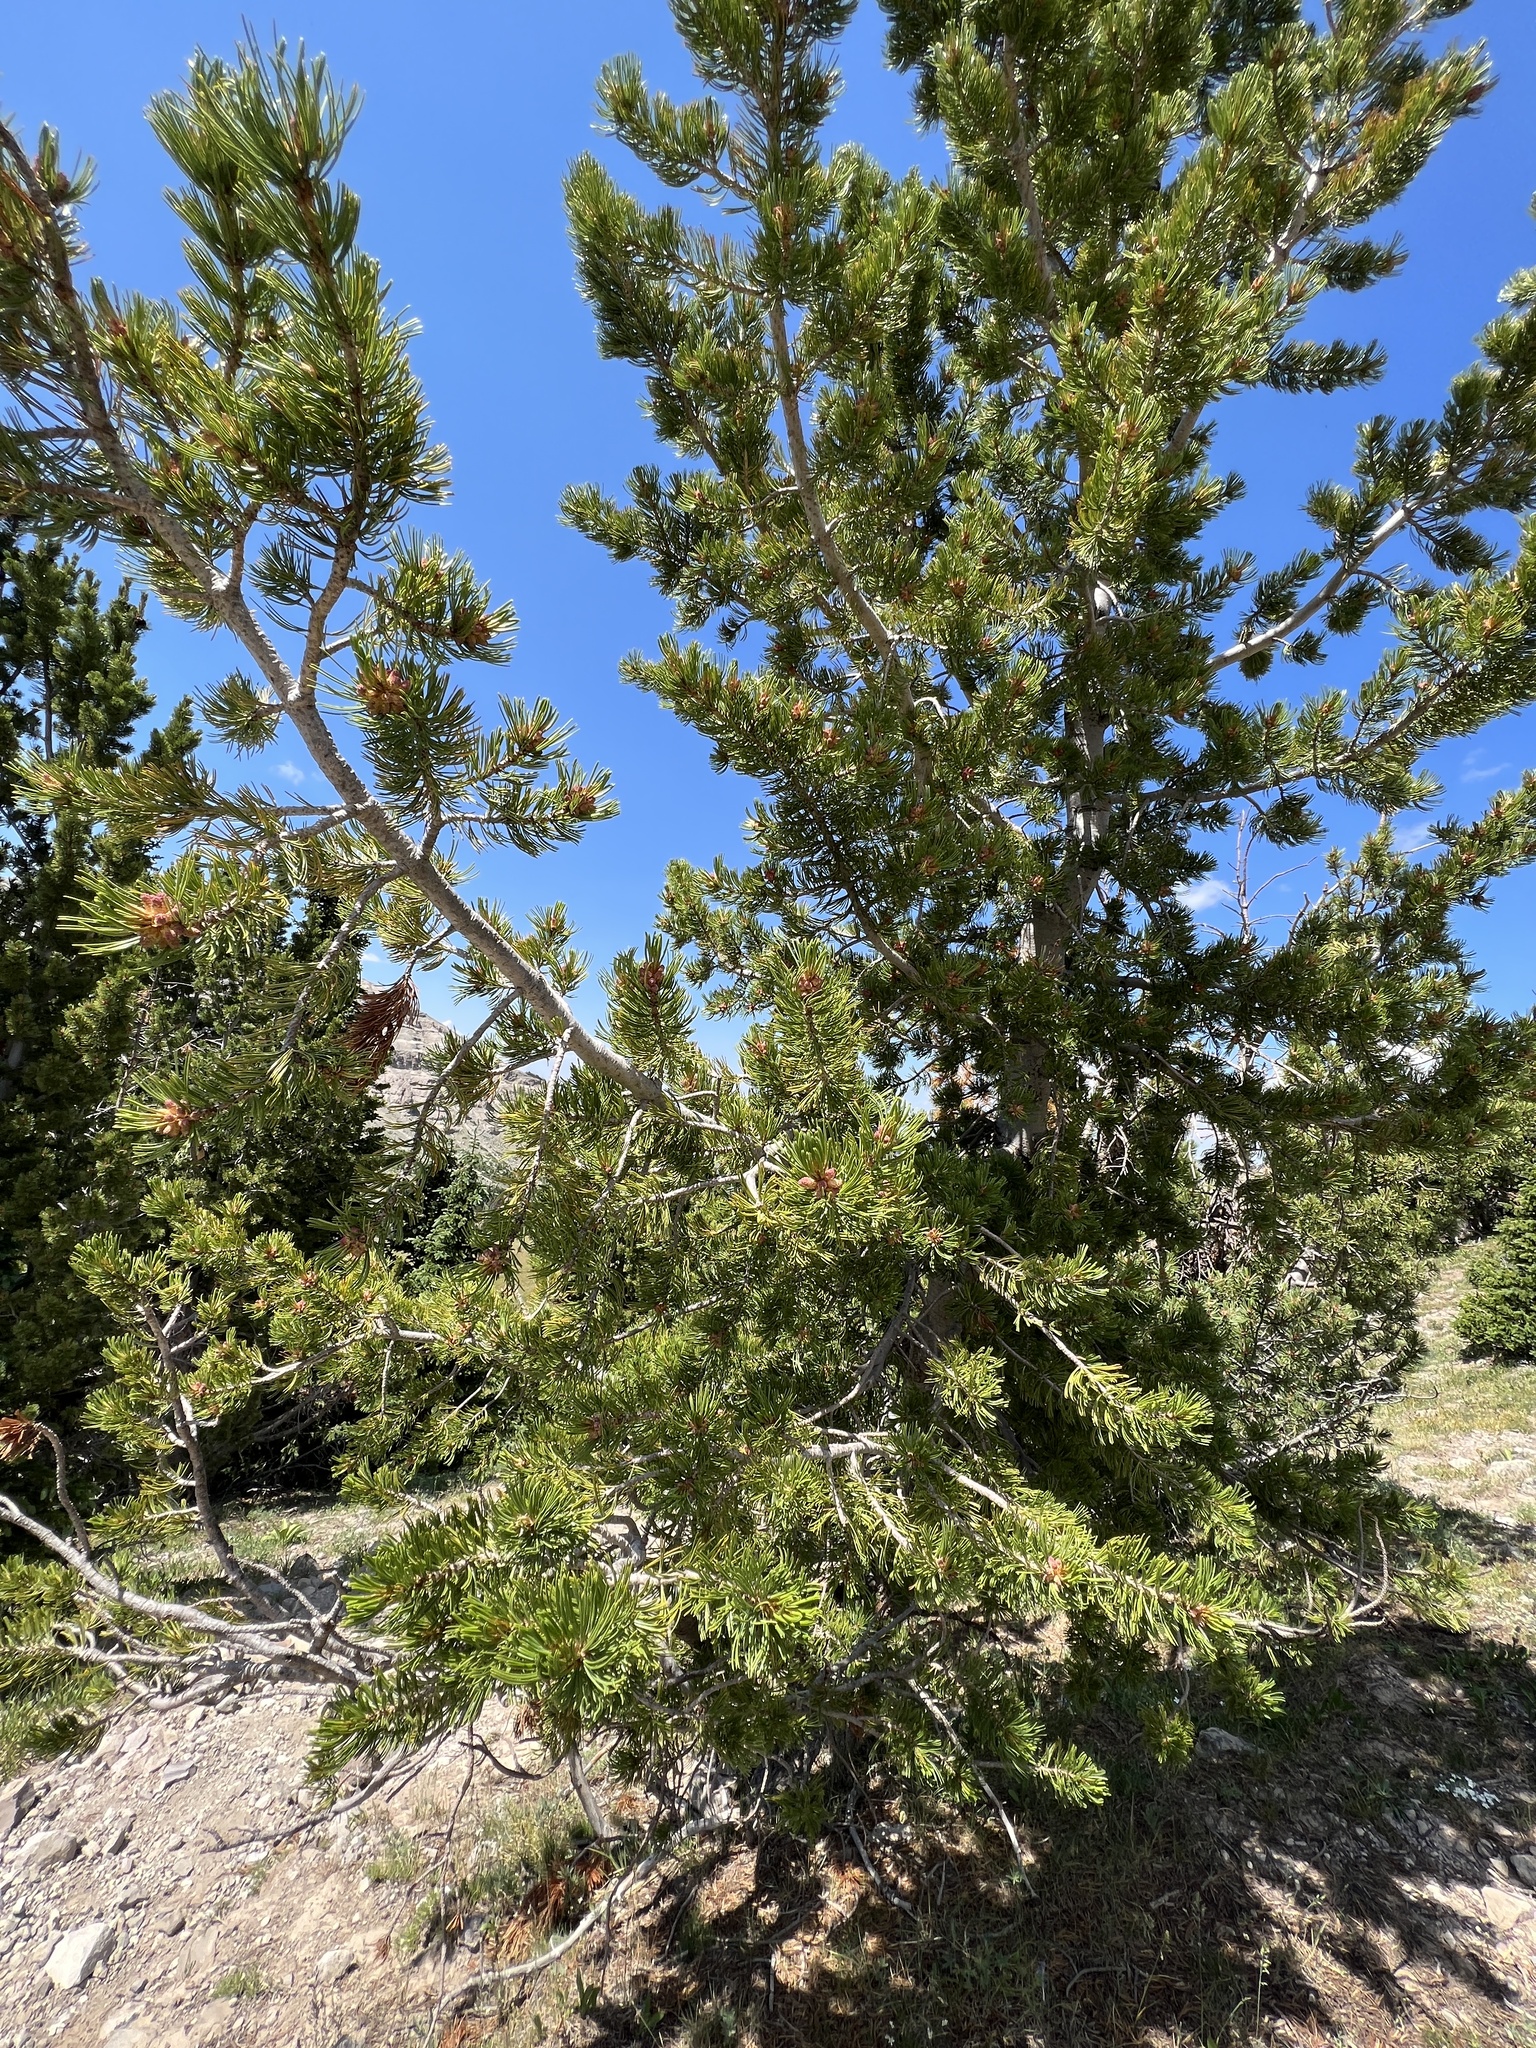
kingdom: Plantae
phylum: Tracheophyta
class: Pinopsida
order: Pinales
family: Pinaceae
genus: Pinus
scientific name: Pinus albicaulis
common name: Whitebark pine
